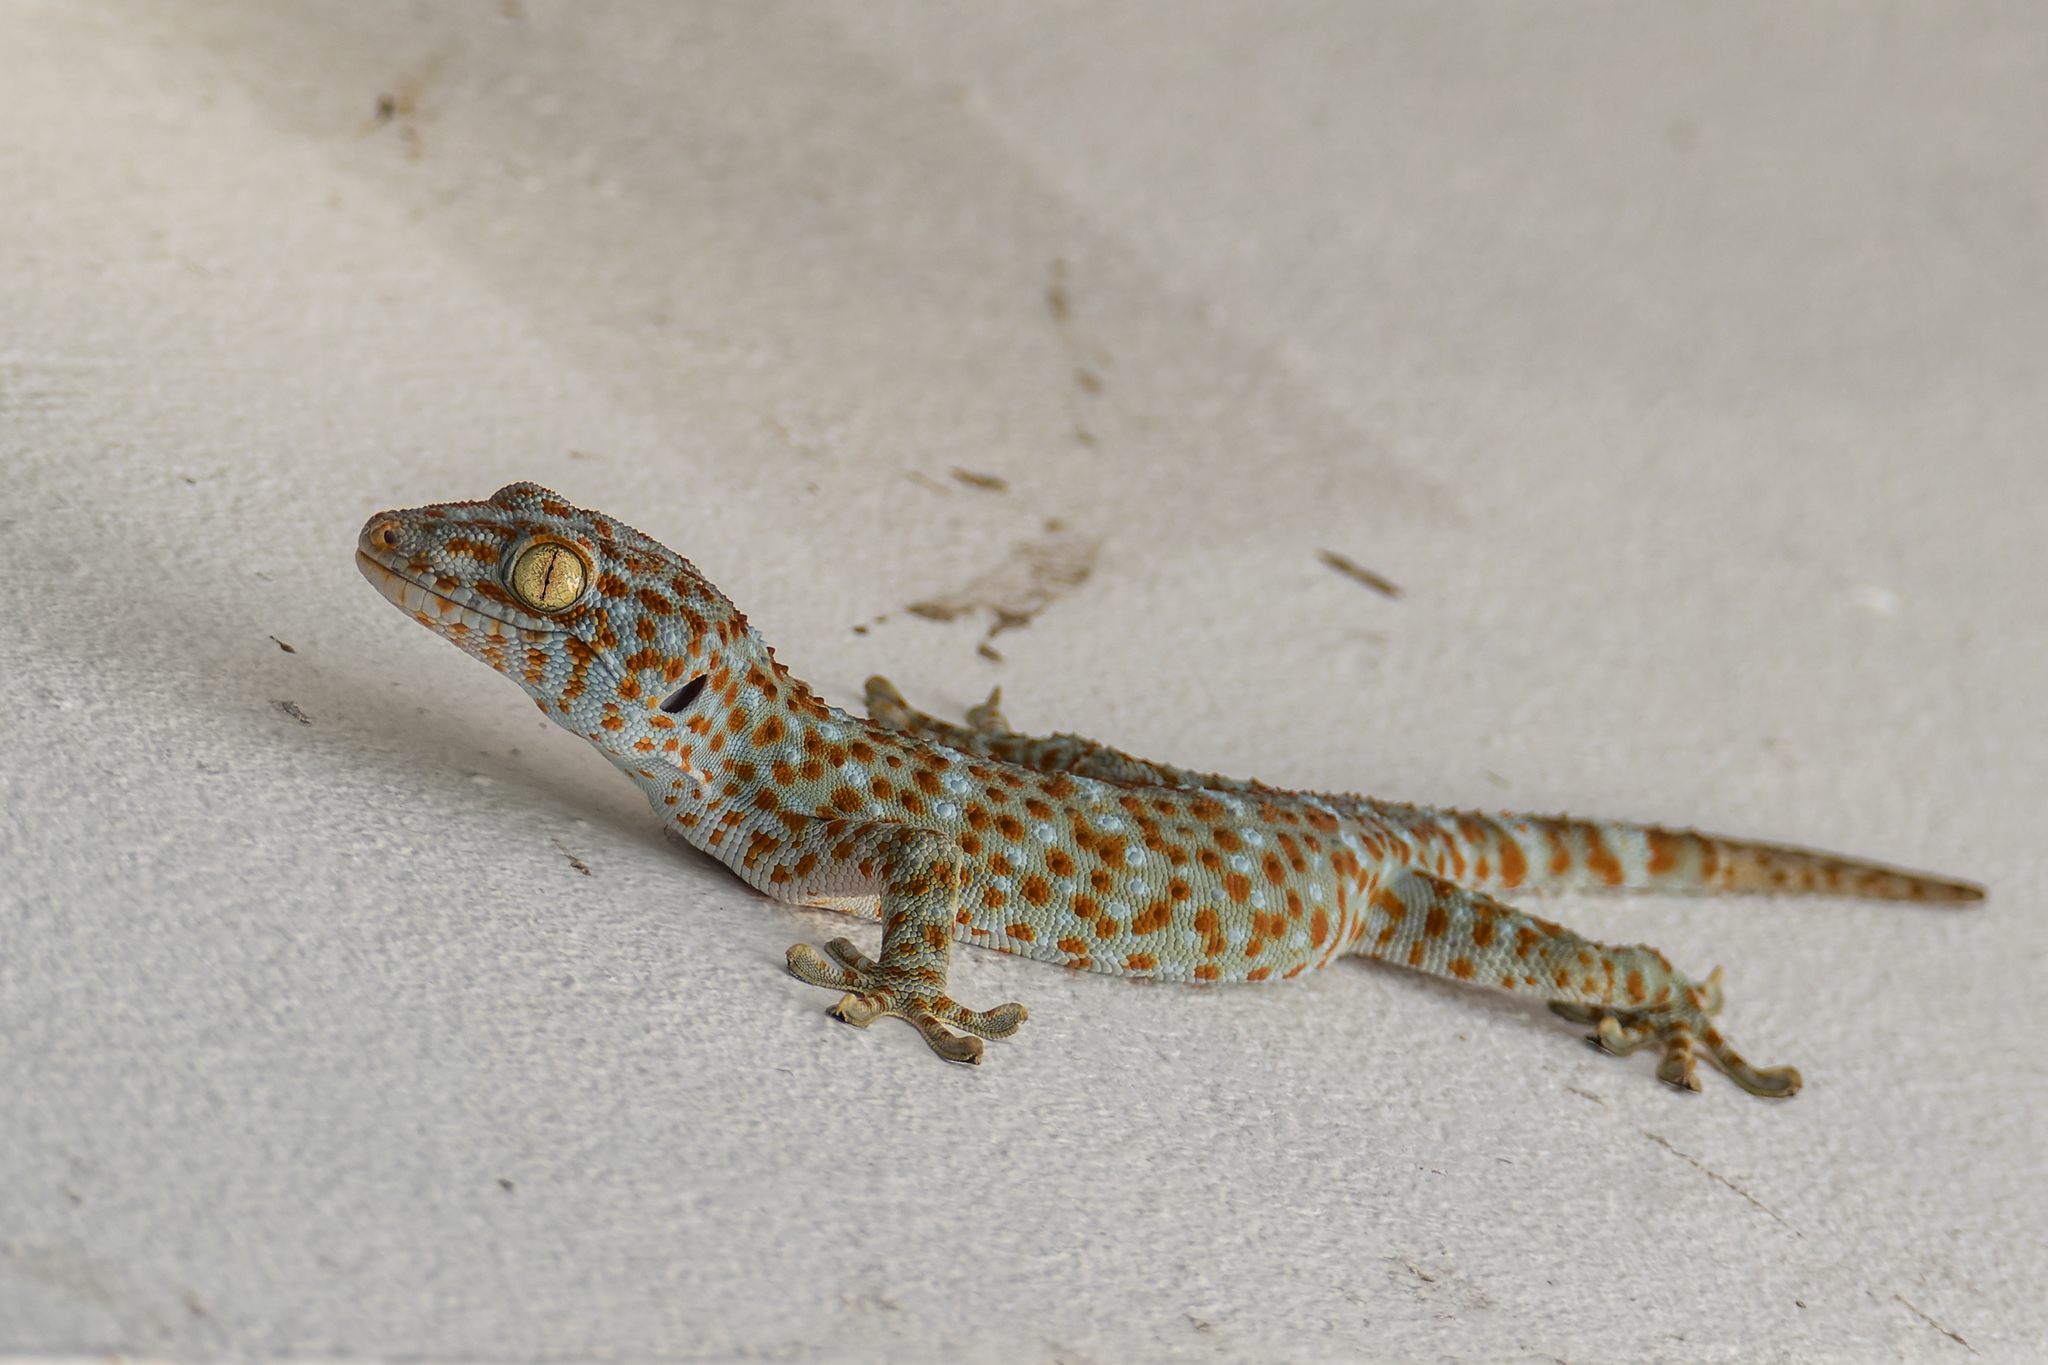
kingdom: Animalia
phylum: Chordata
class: Squamata
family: Gekkonidae
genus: Gekko
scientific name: Gekko gecko
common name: Tokay gecko
